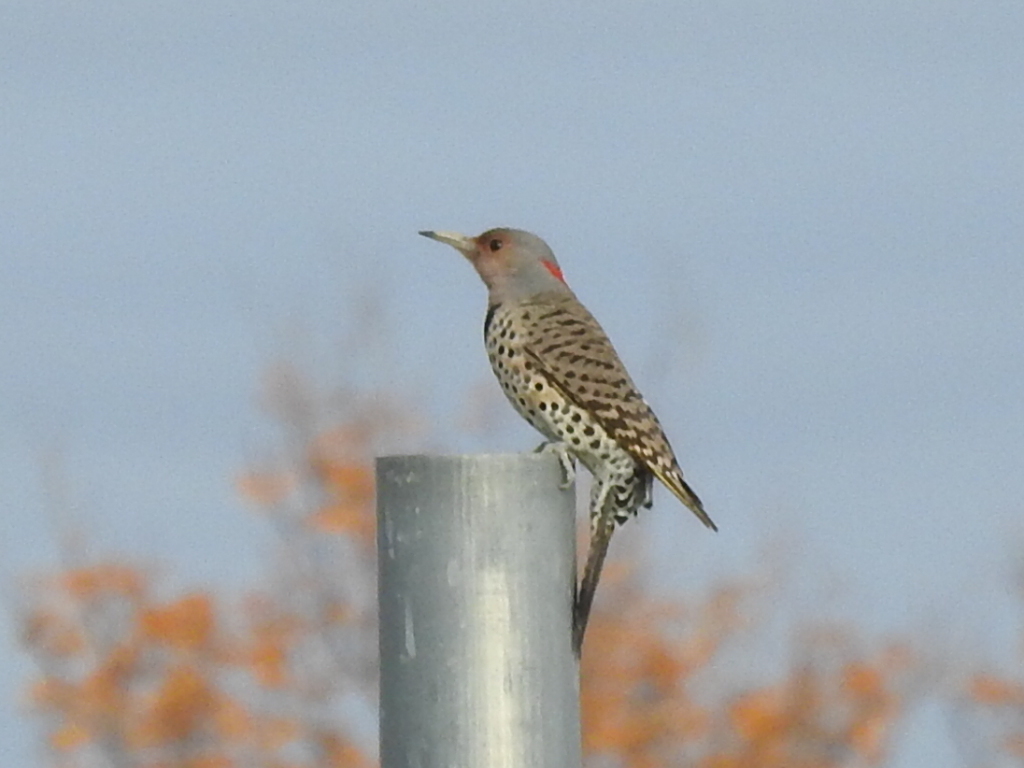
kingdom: Animalia
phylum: Chordata
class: Aves
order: Piciformes
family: Picidae
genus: Colaptes
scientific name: Colaptes auratus
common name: Northern flicker
